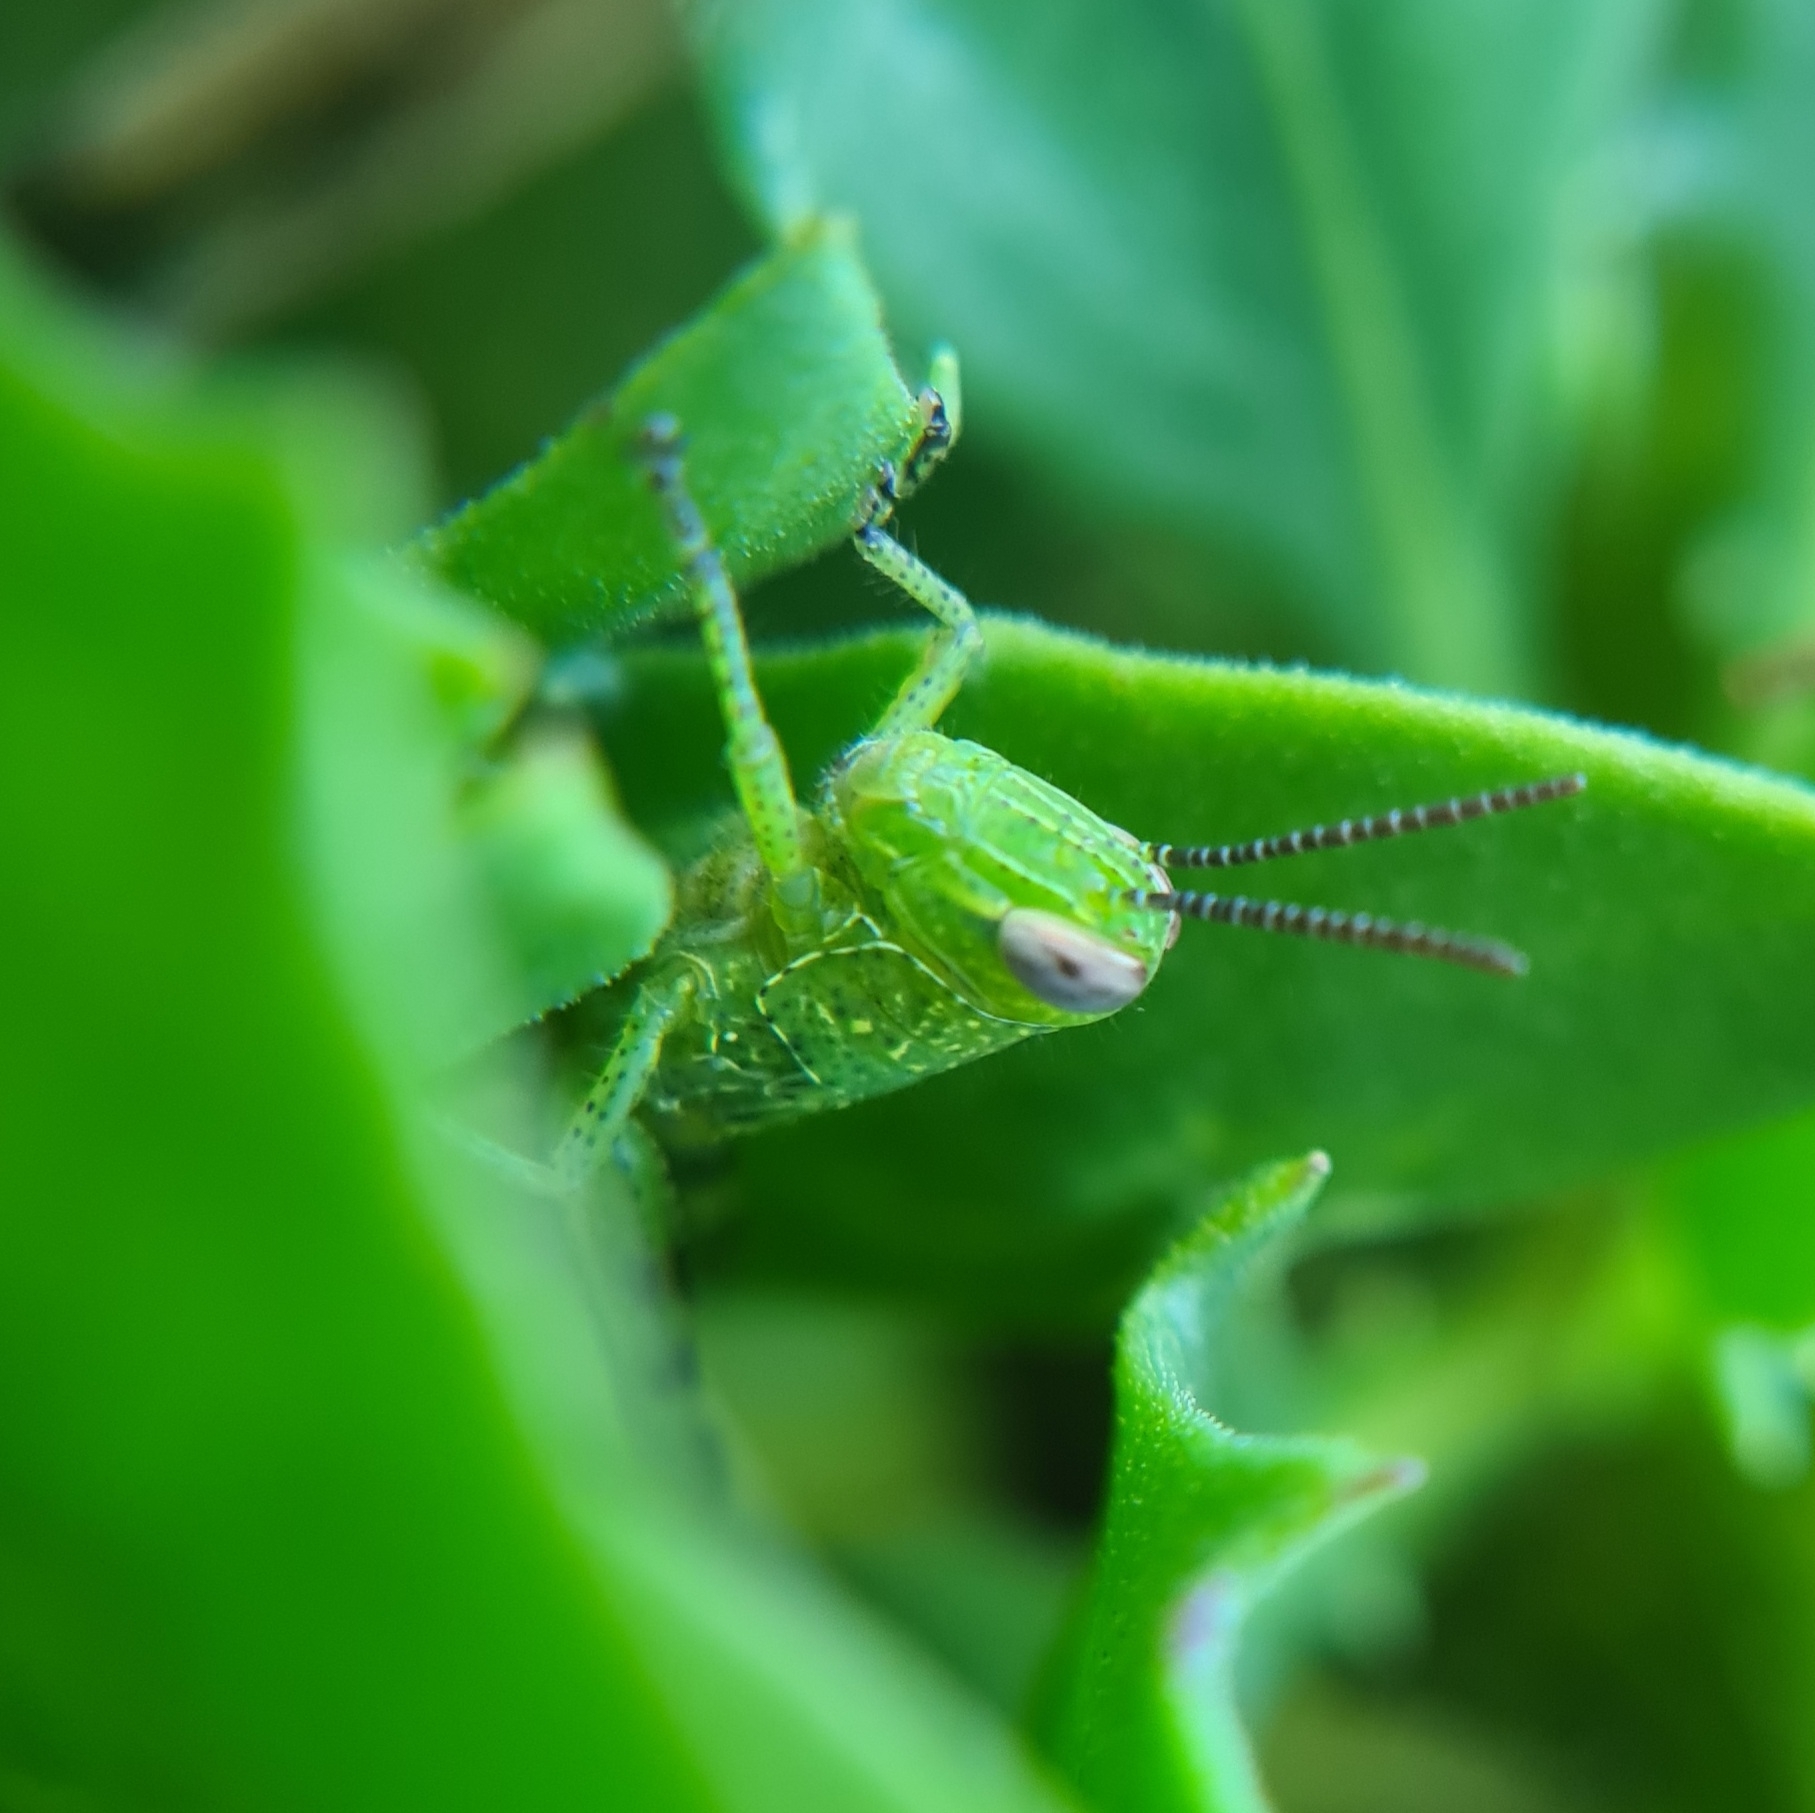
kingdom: Animalia
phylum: Arthropoda
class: Insecta
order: Orthoptera
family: Acrididae
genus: Valanga
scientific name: Valanga irregularis
